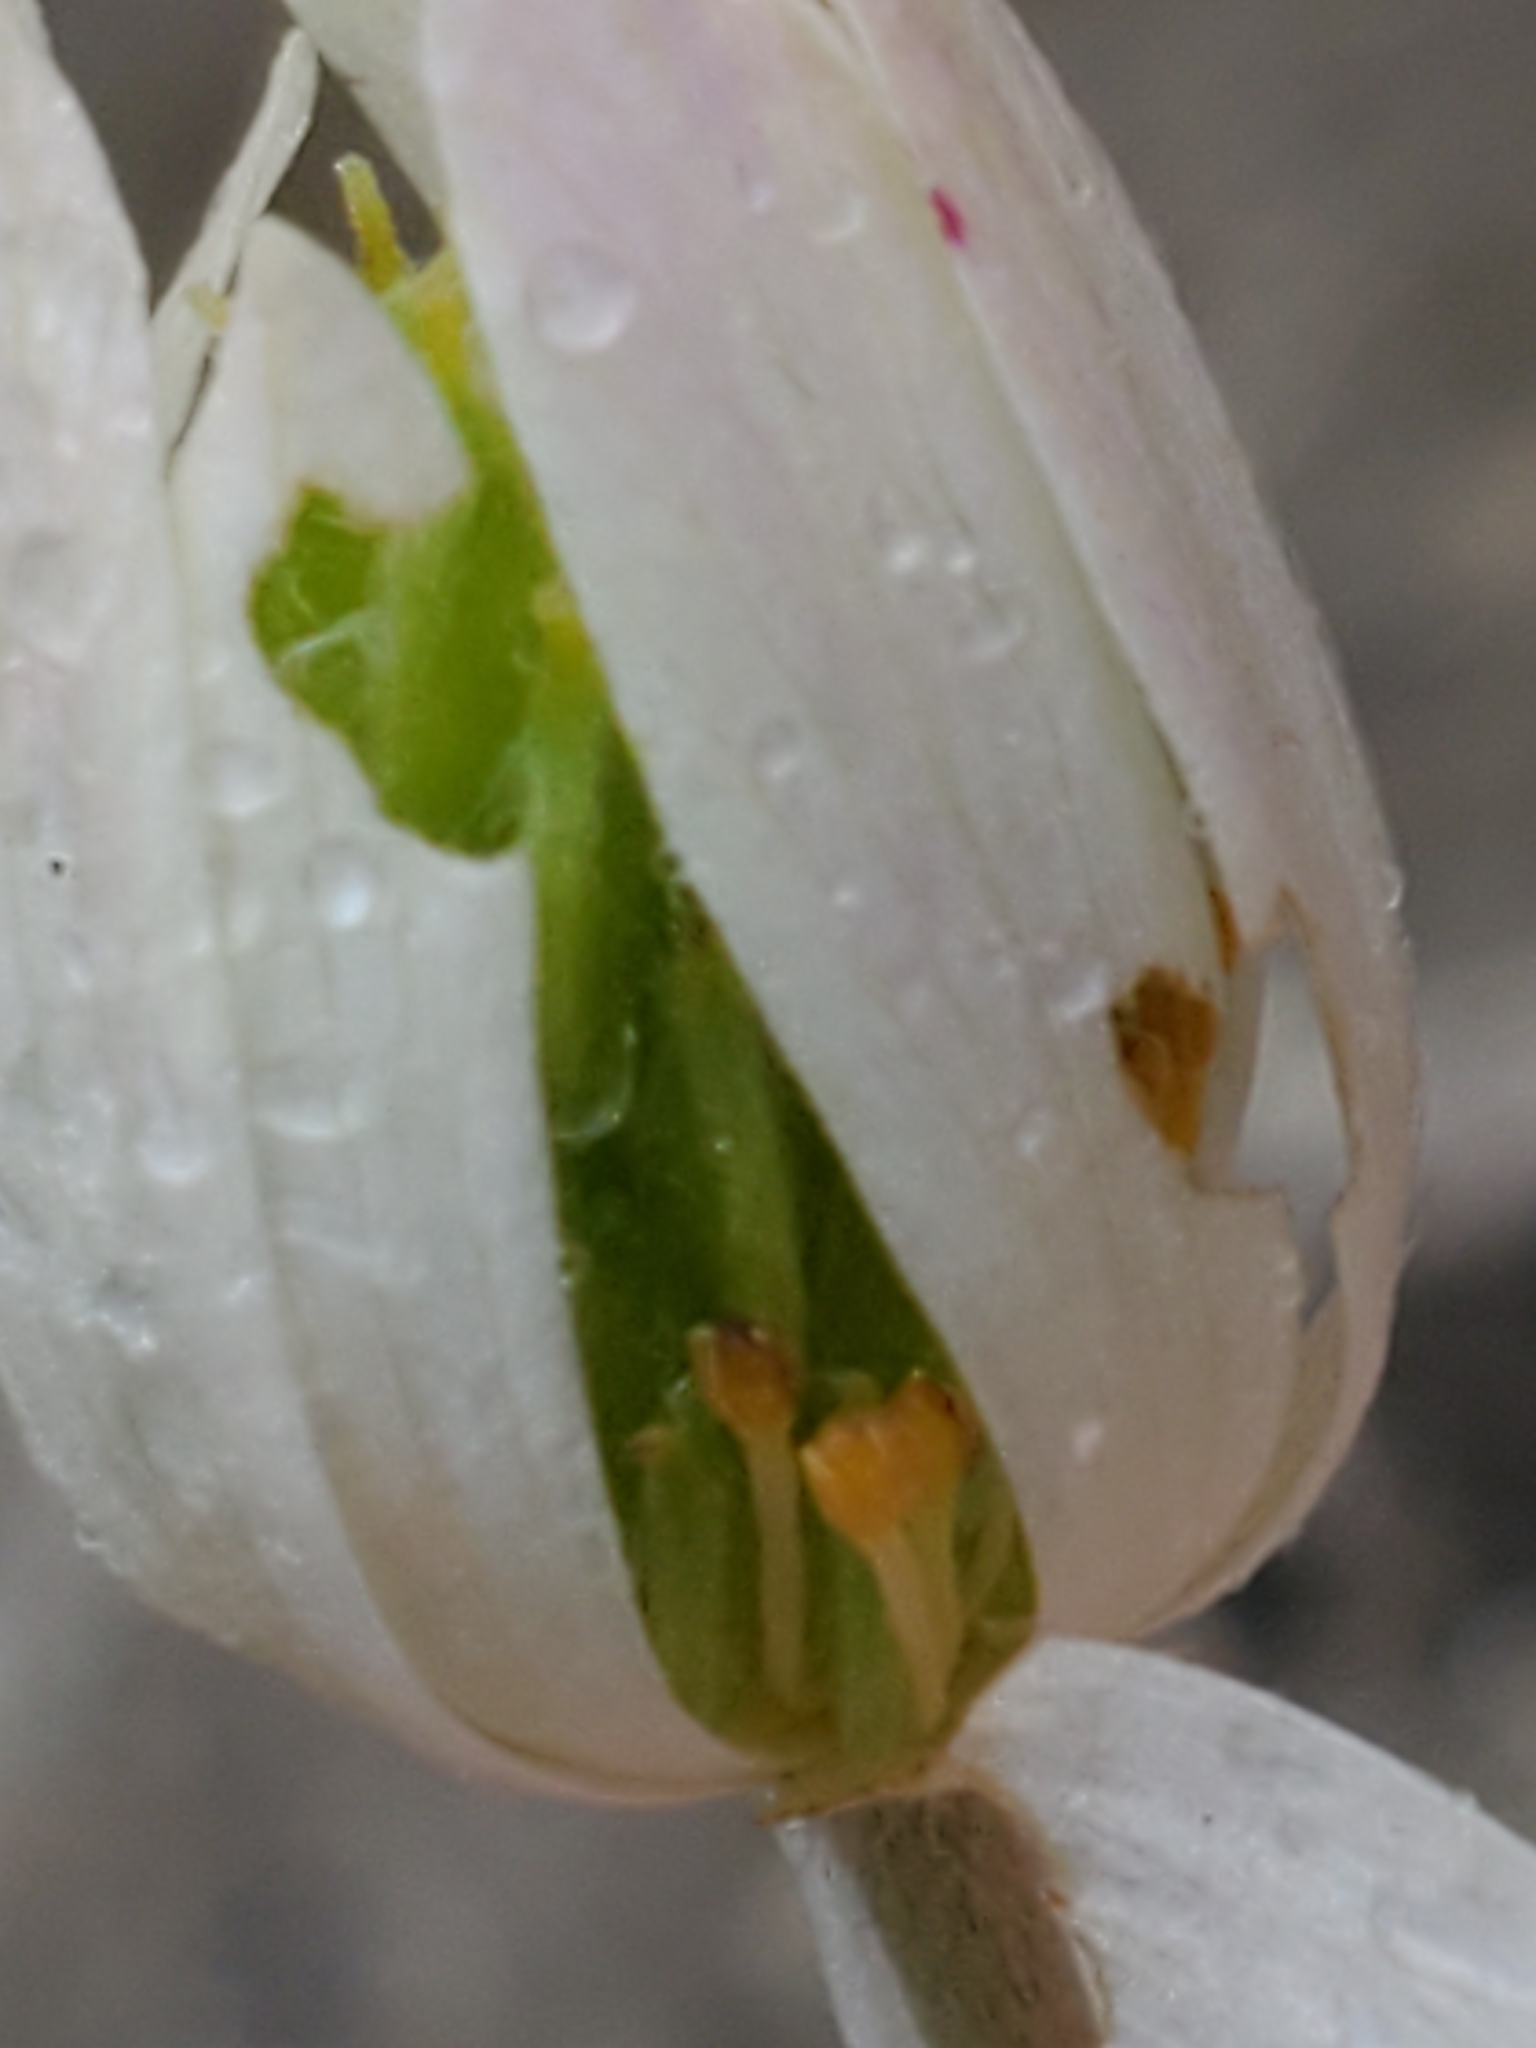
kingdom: Plantae
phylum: Tracheophyta
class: Magnoliopsida
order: Ranunculales
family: Ranunculaceae
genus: Anemone
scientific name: Anemone edwardsiana
